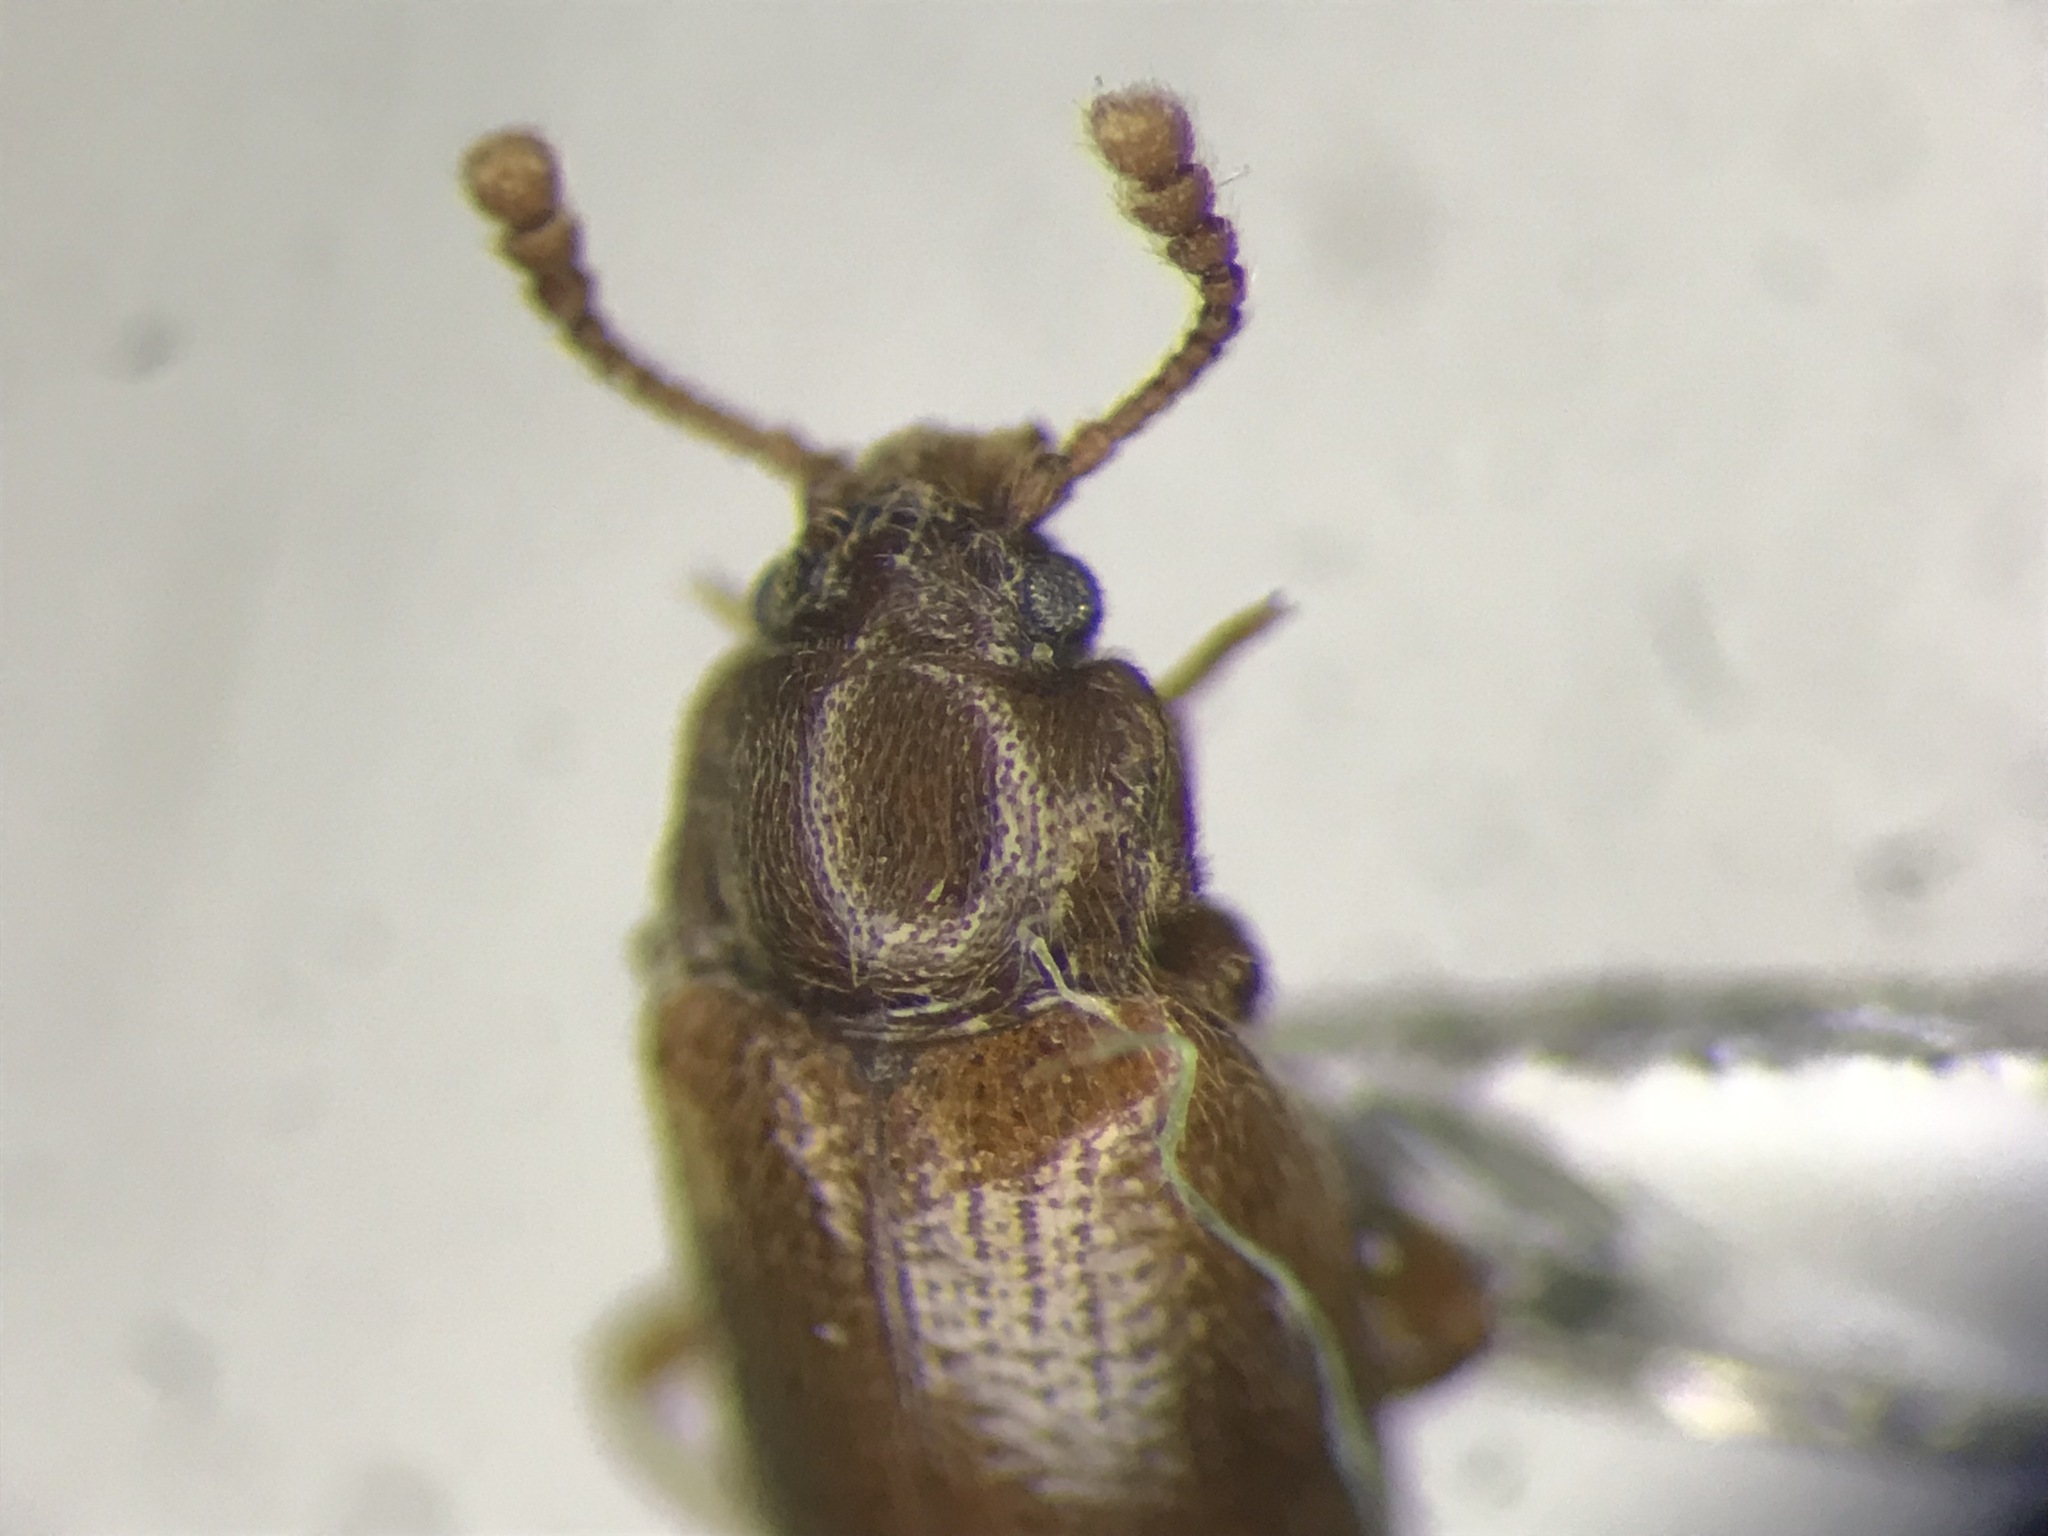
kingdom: Animalia
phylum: Arthropoda
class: Insecta
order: Coleoptera
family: Endomychidae
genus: Hadromychus
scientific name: Hadromychus chandleri
